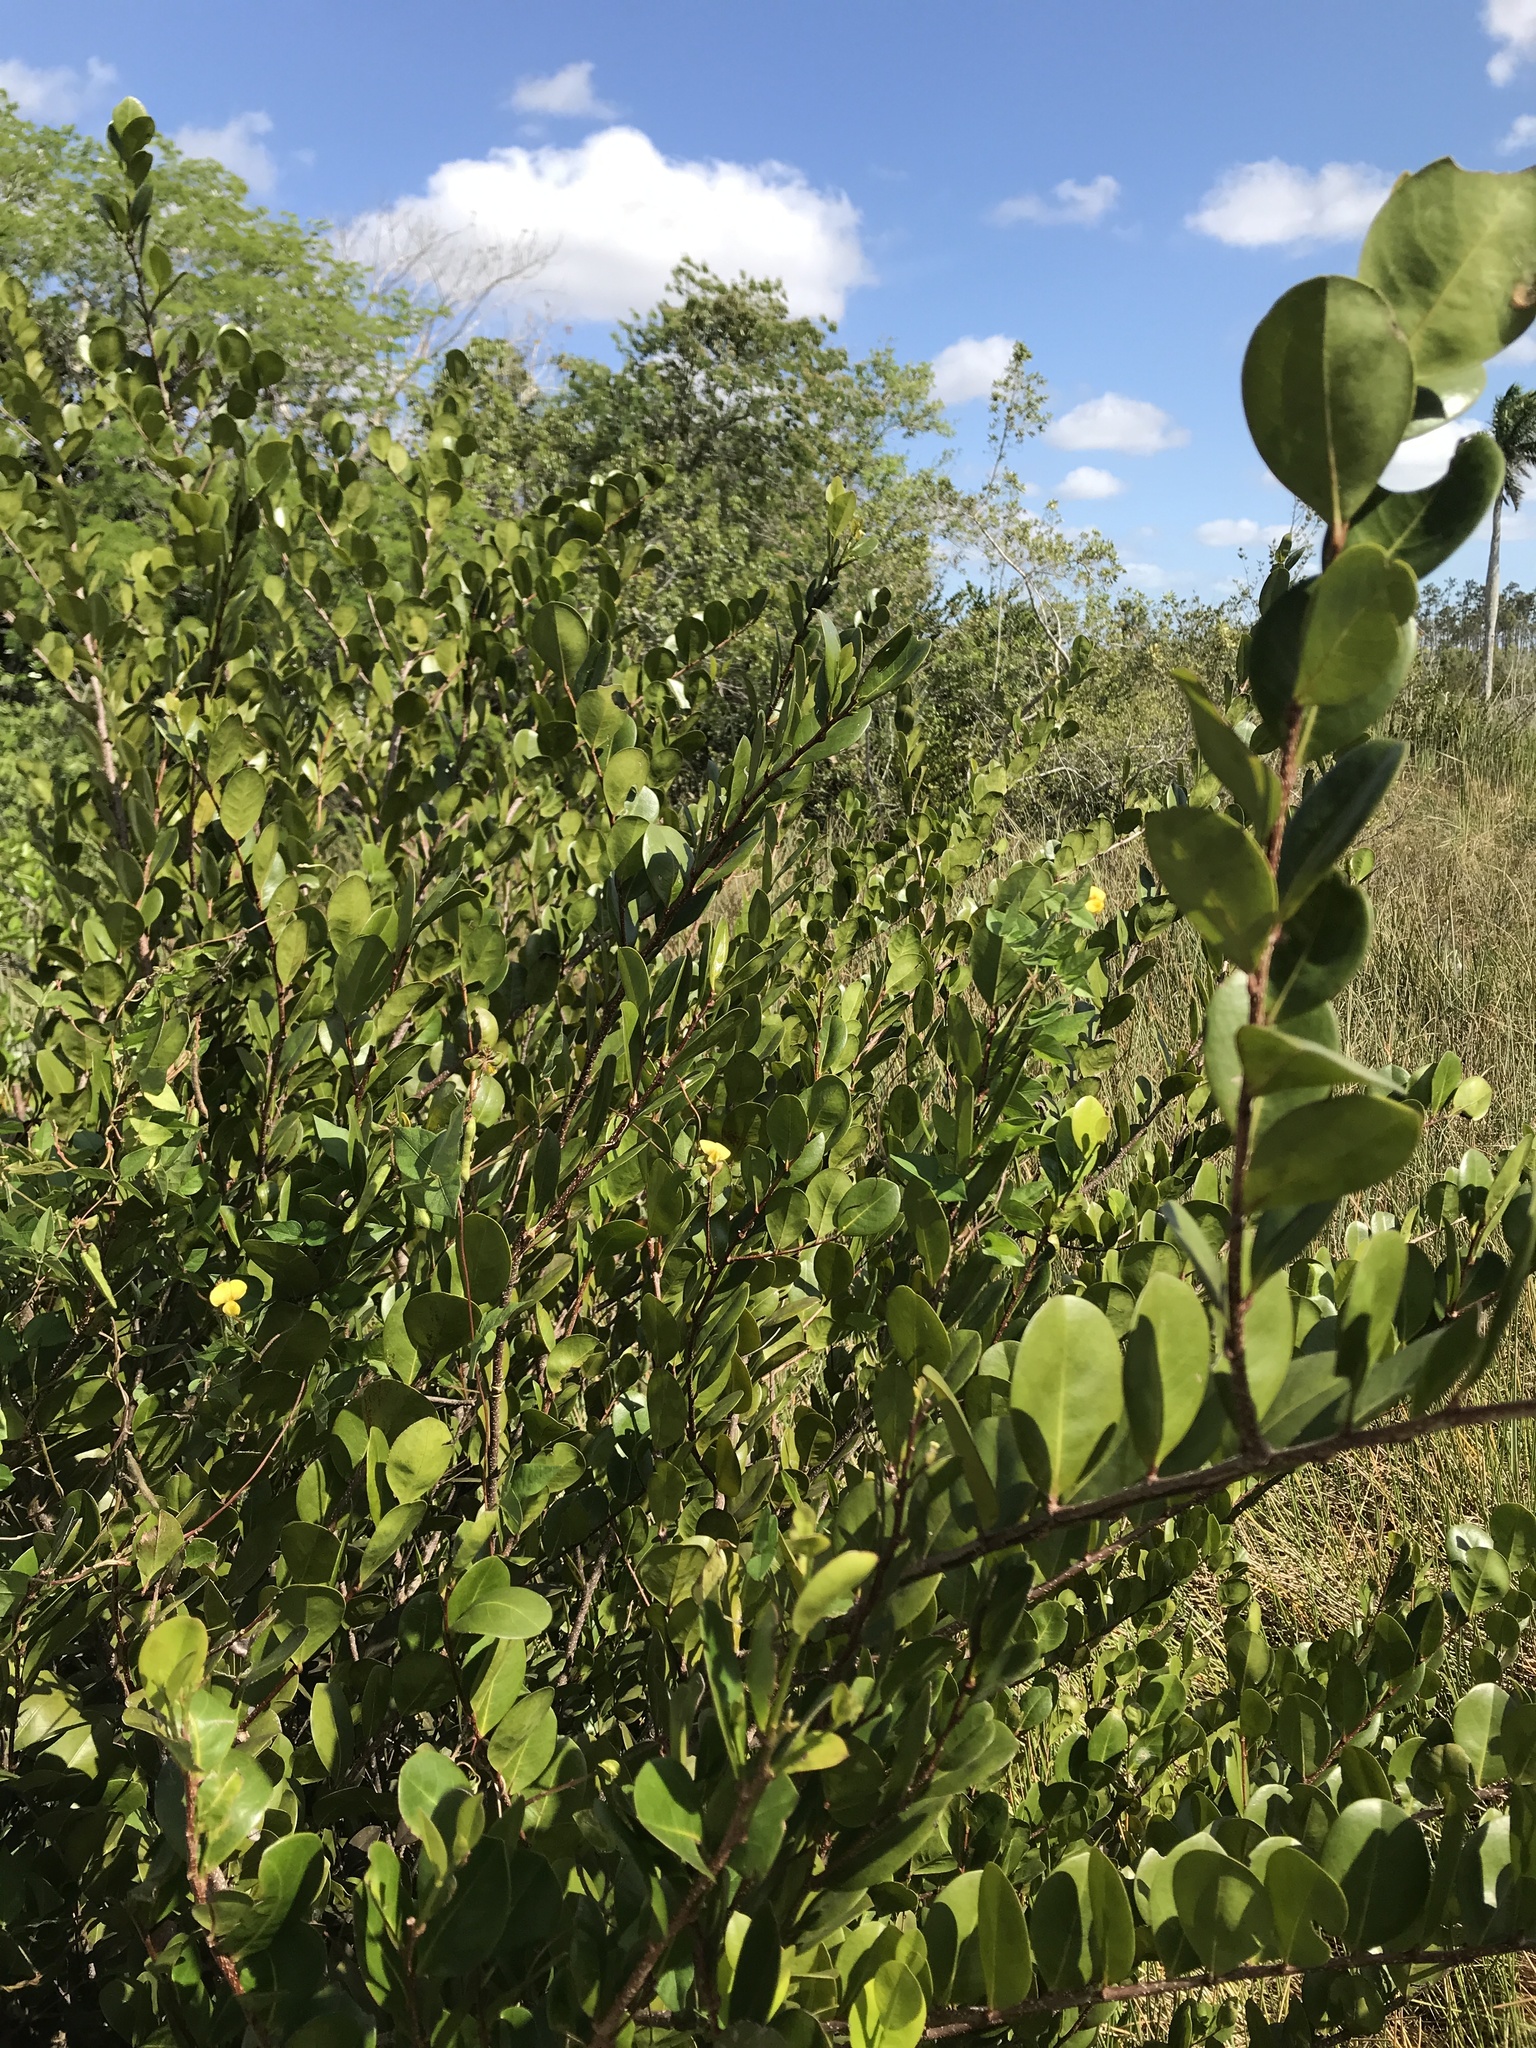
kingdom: Plantae
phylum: Tracheophyta
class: Magnoliopsida
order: Malpighiales
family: Chrysobalanaceae
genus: Chrysobalanus
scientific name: Chrysobalanus icaco
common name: Coco plum
